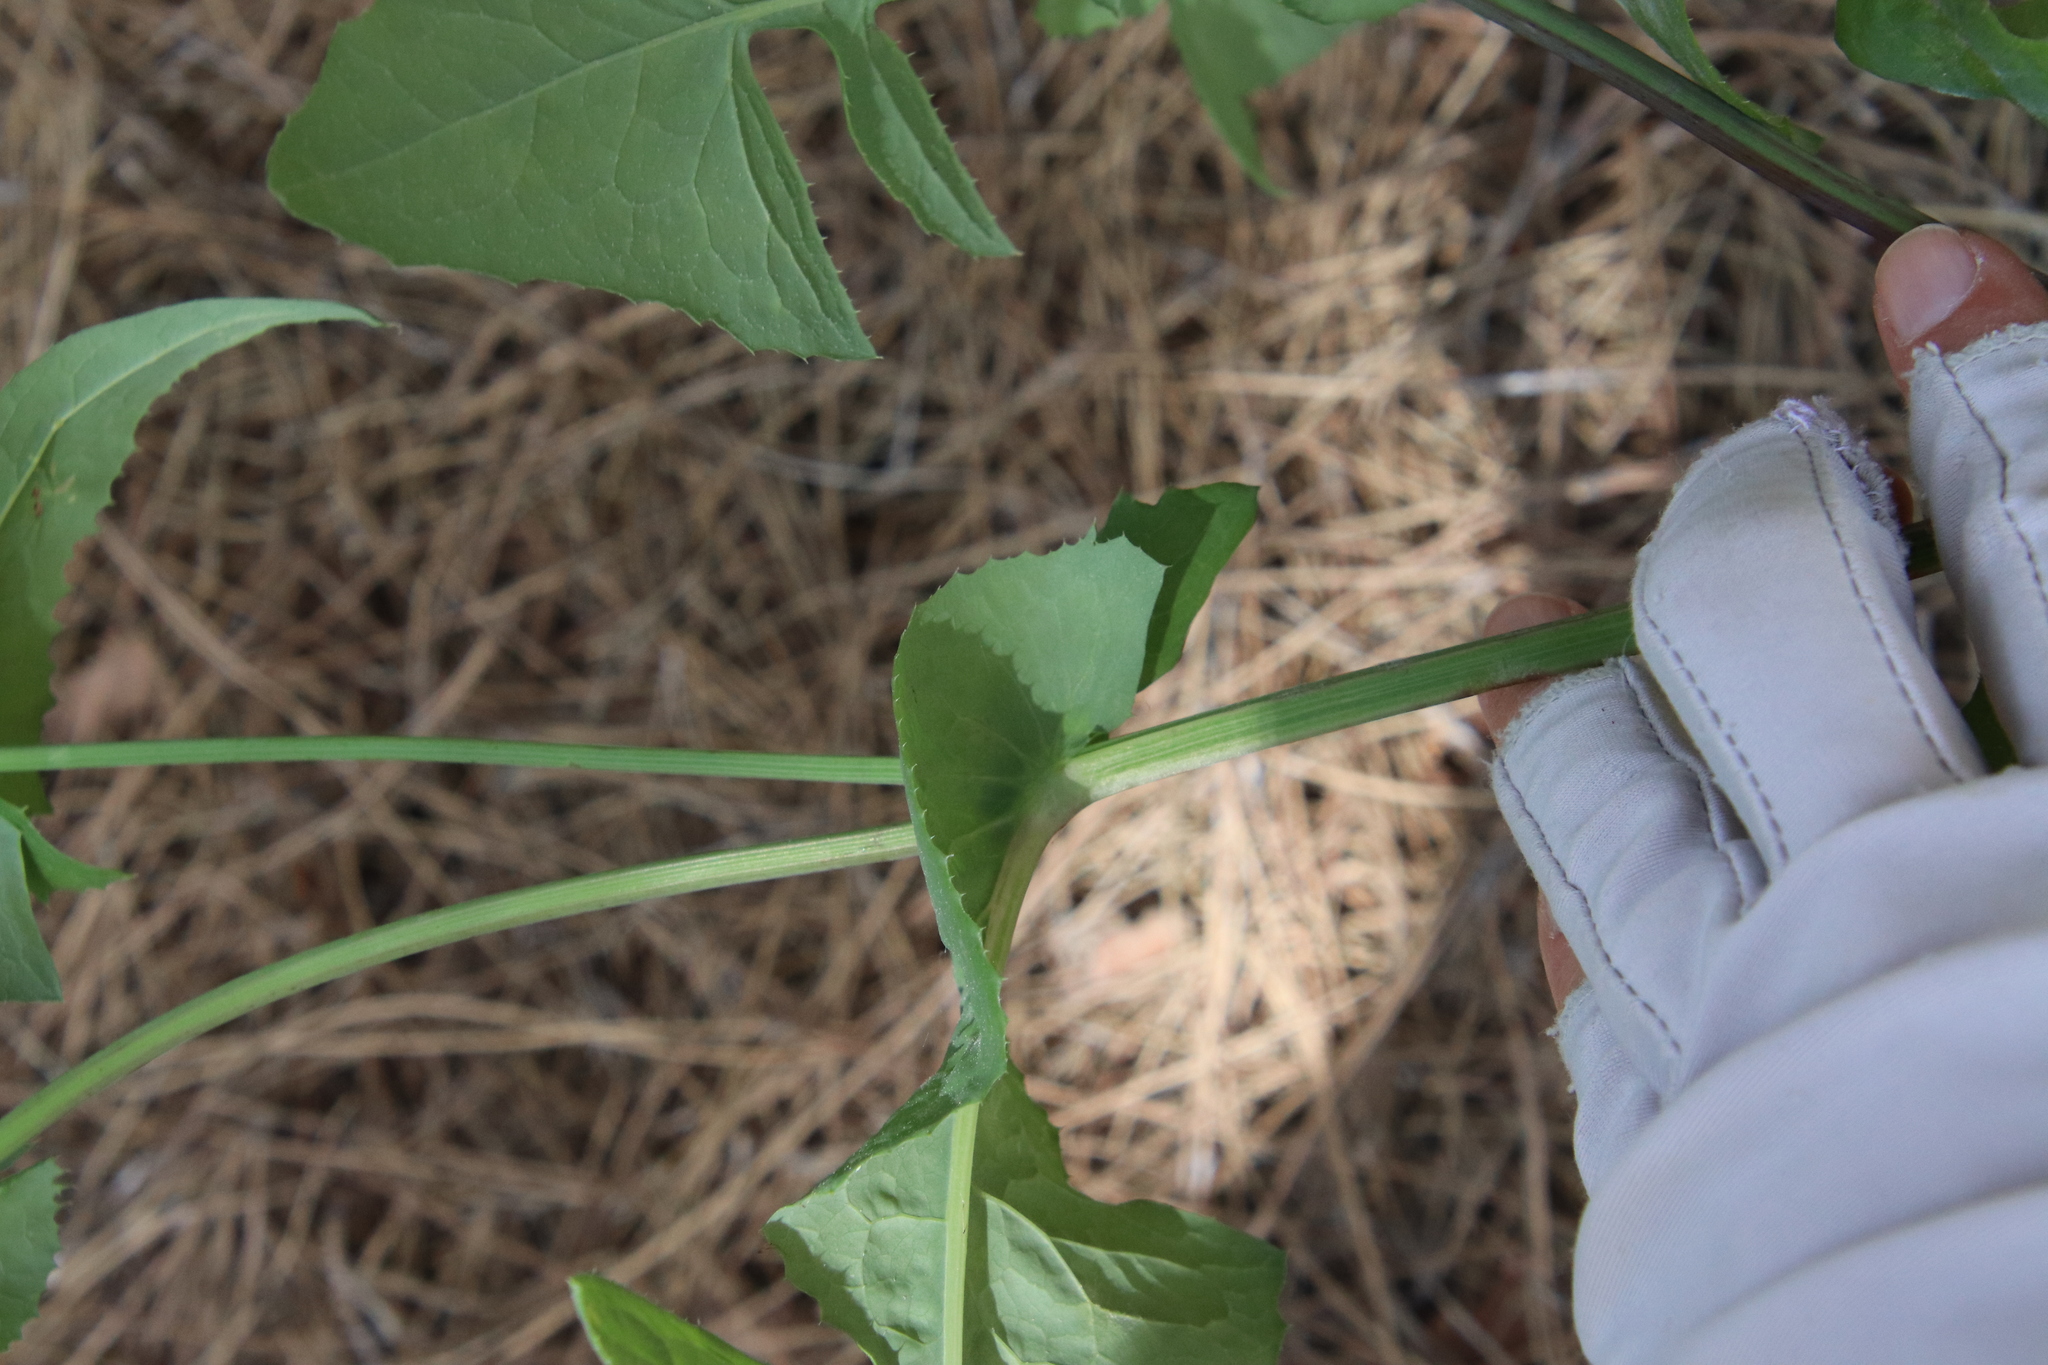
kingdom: Plantae
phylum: Tracheophyta
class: Magnoliopsida
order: Asterales
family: Asteraceae
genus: Sonchus
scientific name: Sonchus oleraceus
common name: Common sowthistle
